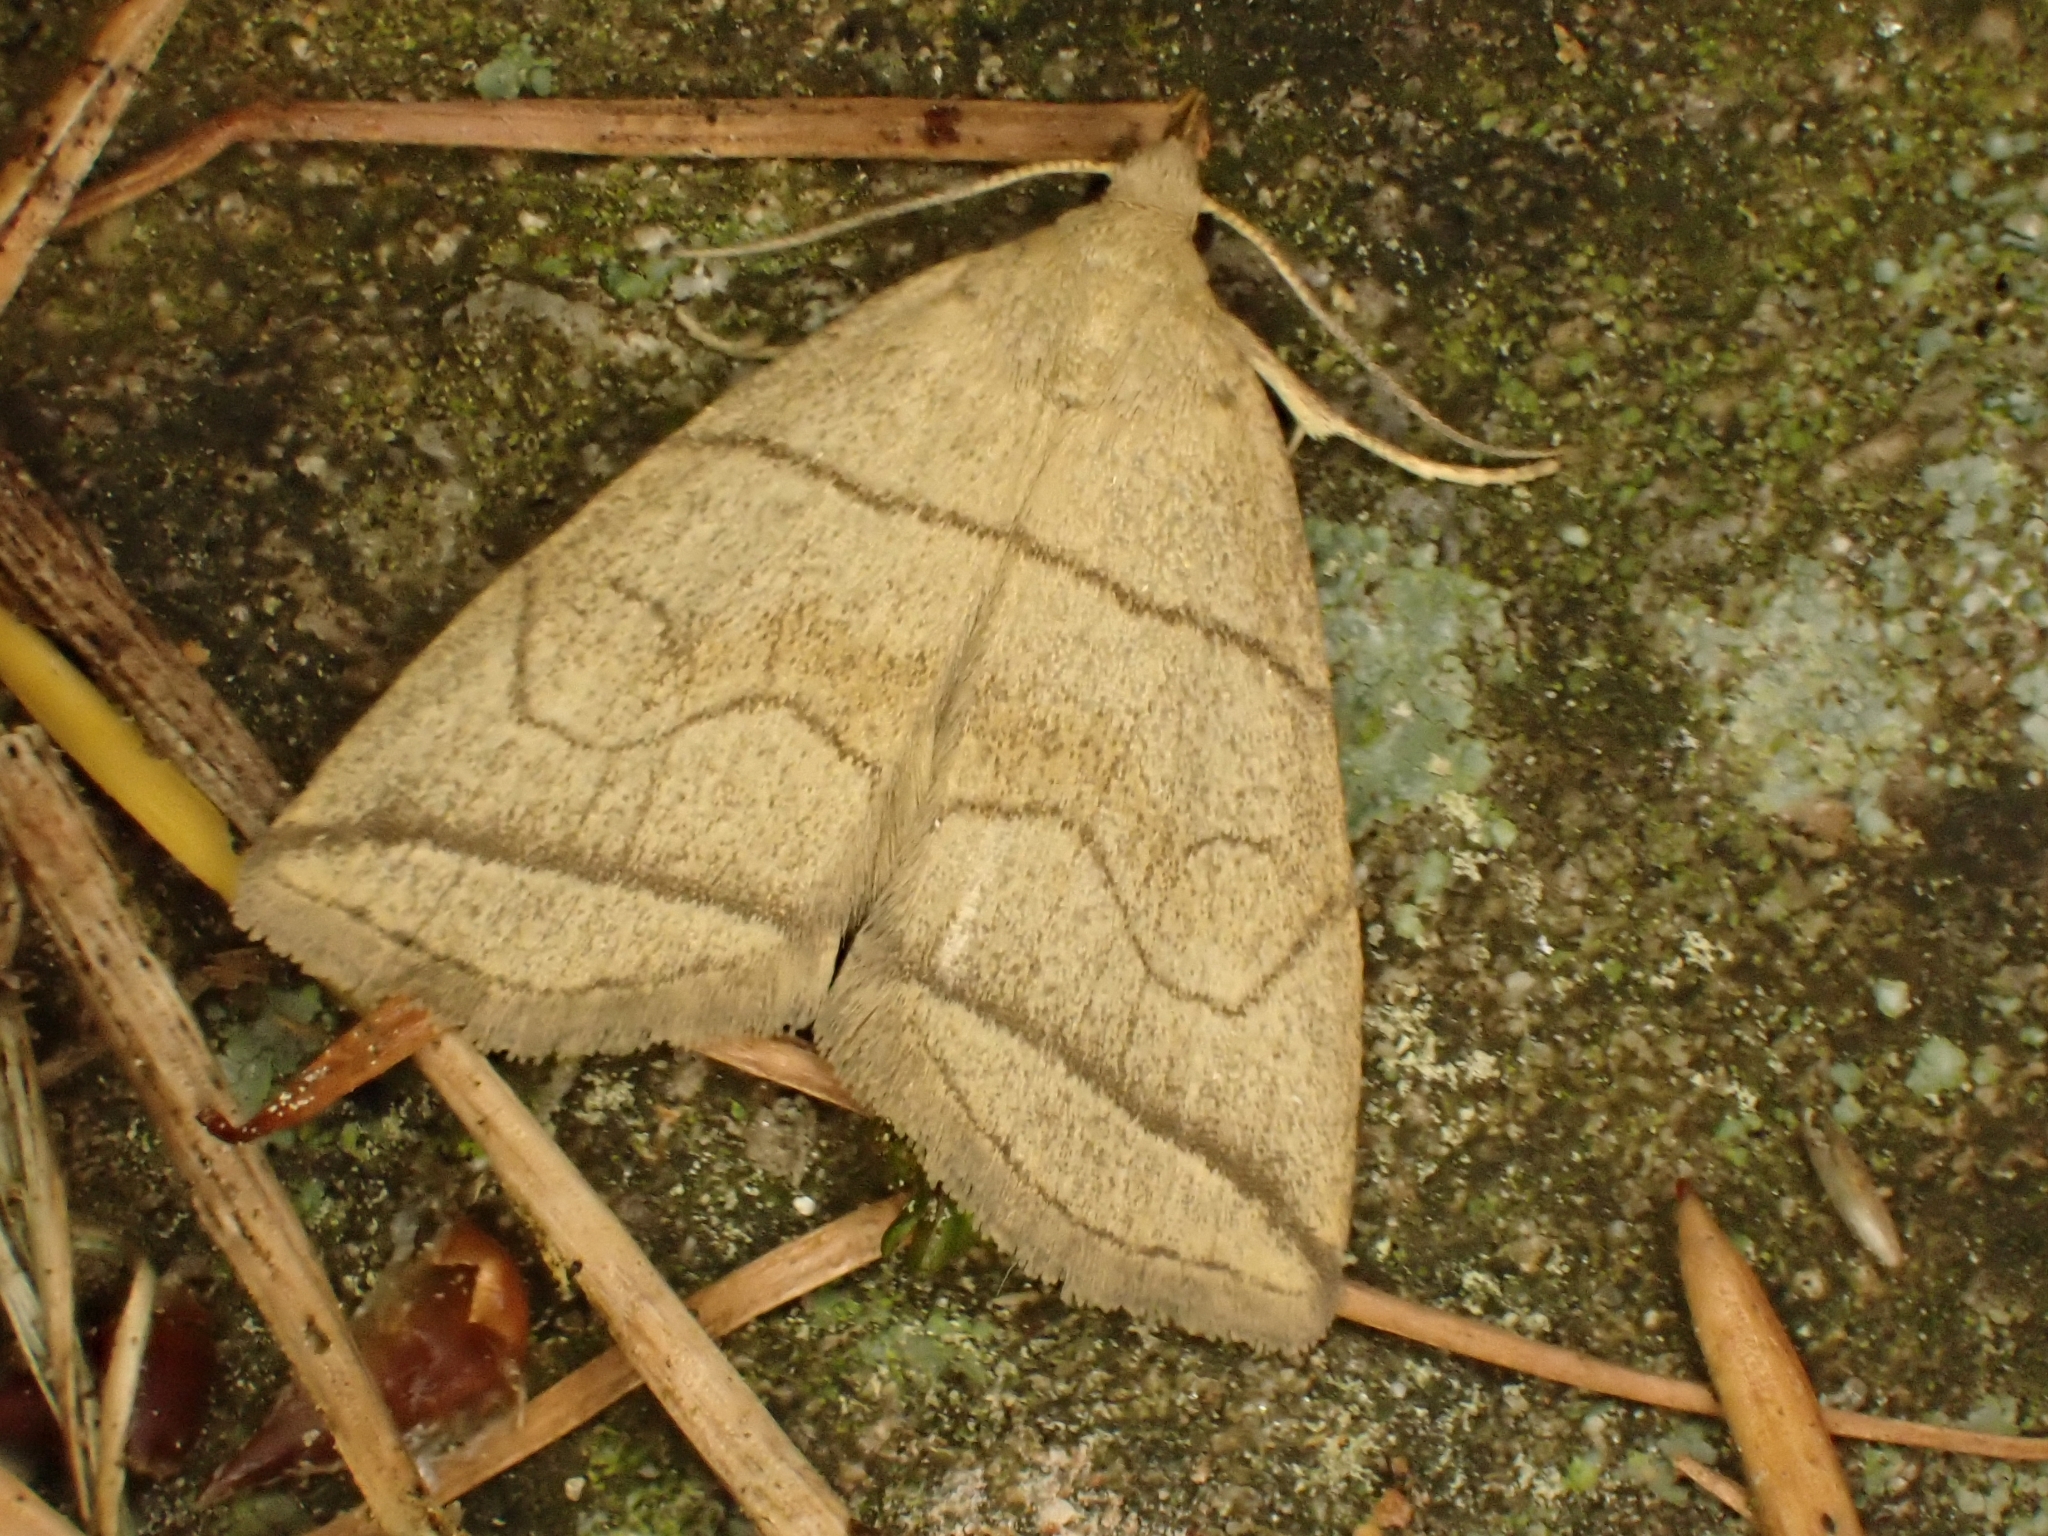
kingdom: Animalia
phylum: Arthropoda
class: Insecta
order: Lepidoptera
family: Erebidae
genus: Herminia
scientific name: Herminia grisealis
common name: Small fan-foot
